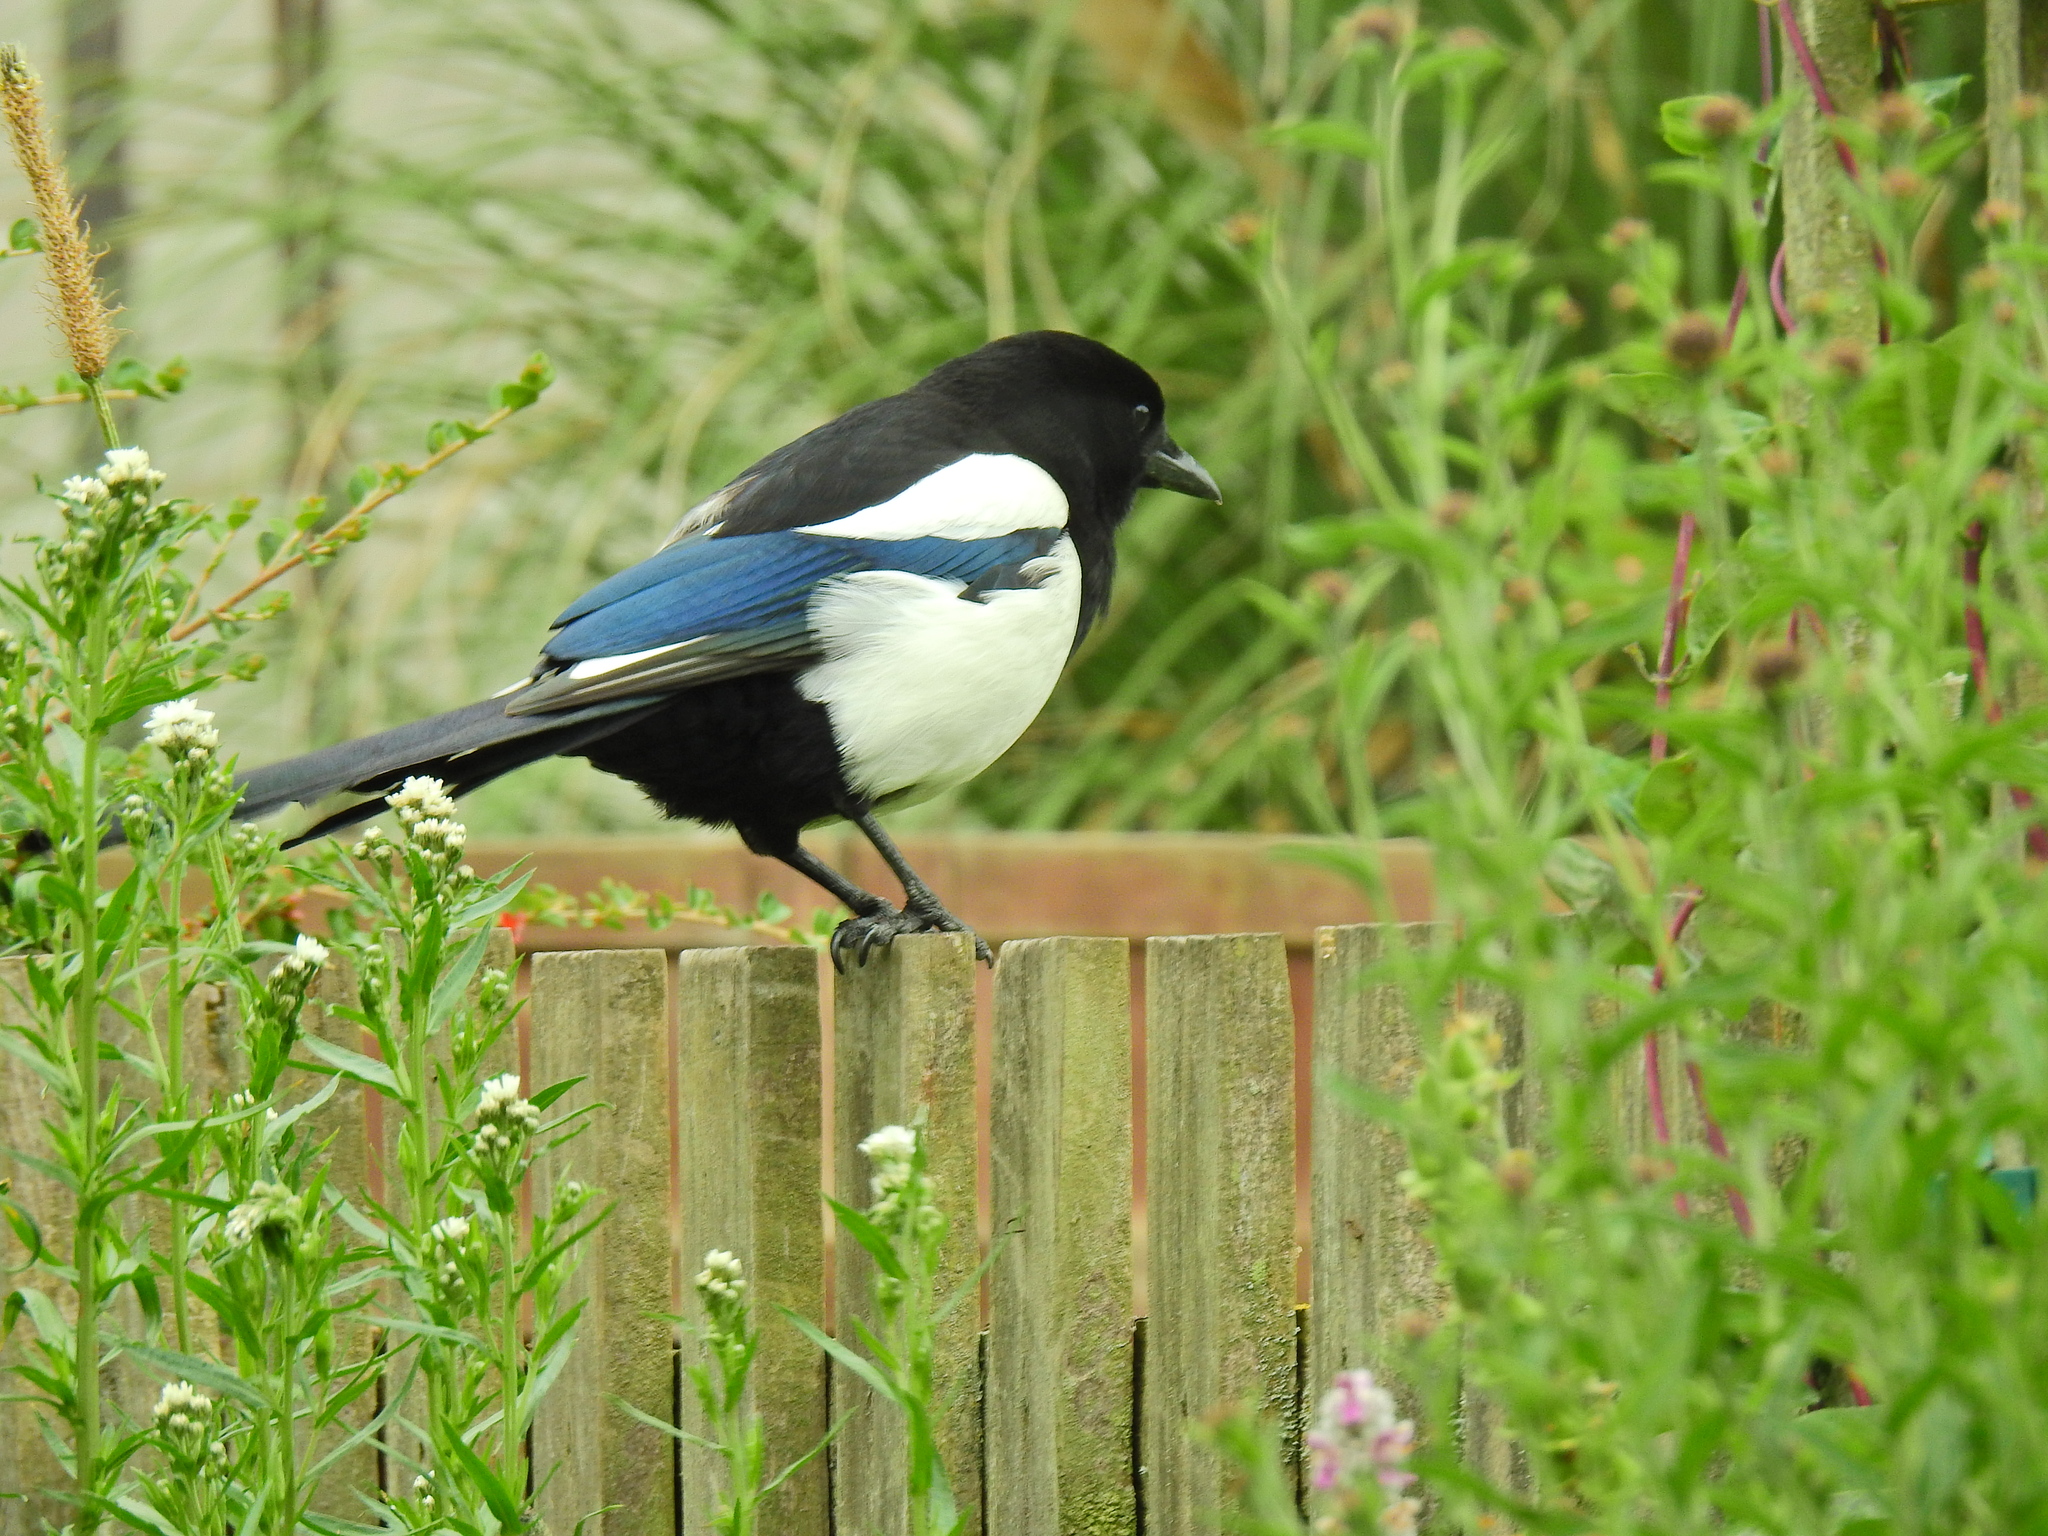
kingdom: Animalia
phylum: Chordata
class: Aves
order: Passeriformes
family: Corvidae
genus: Pica
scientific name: Pica pica
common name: Eurasian magpie
